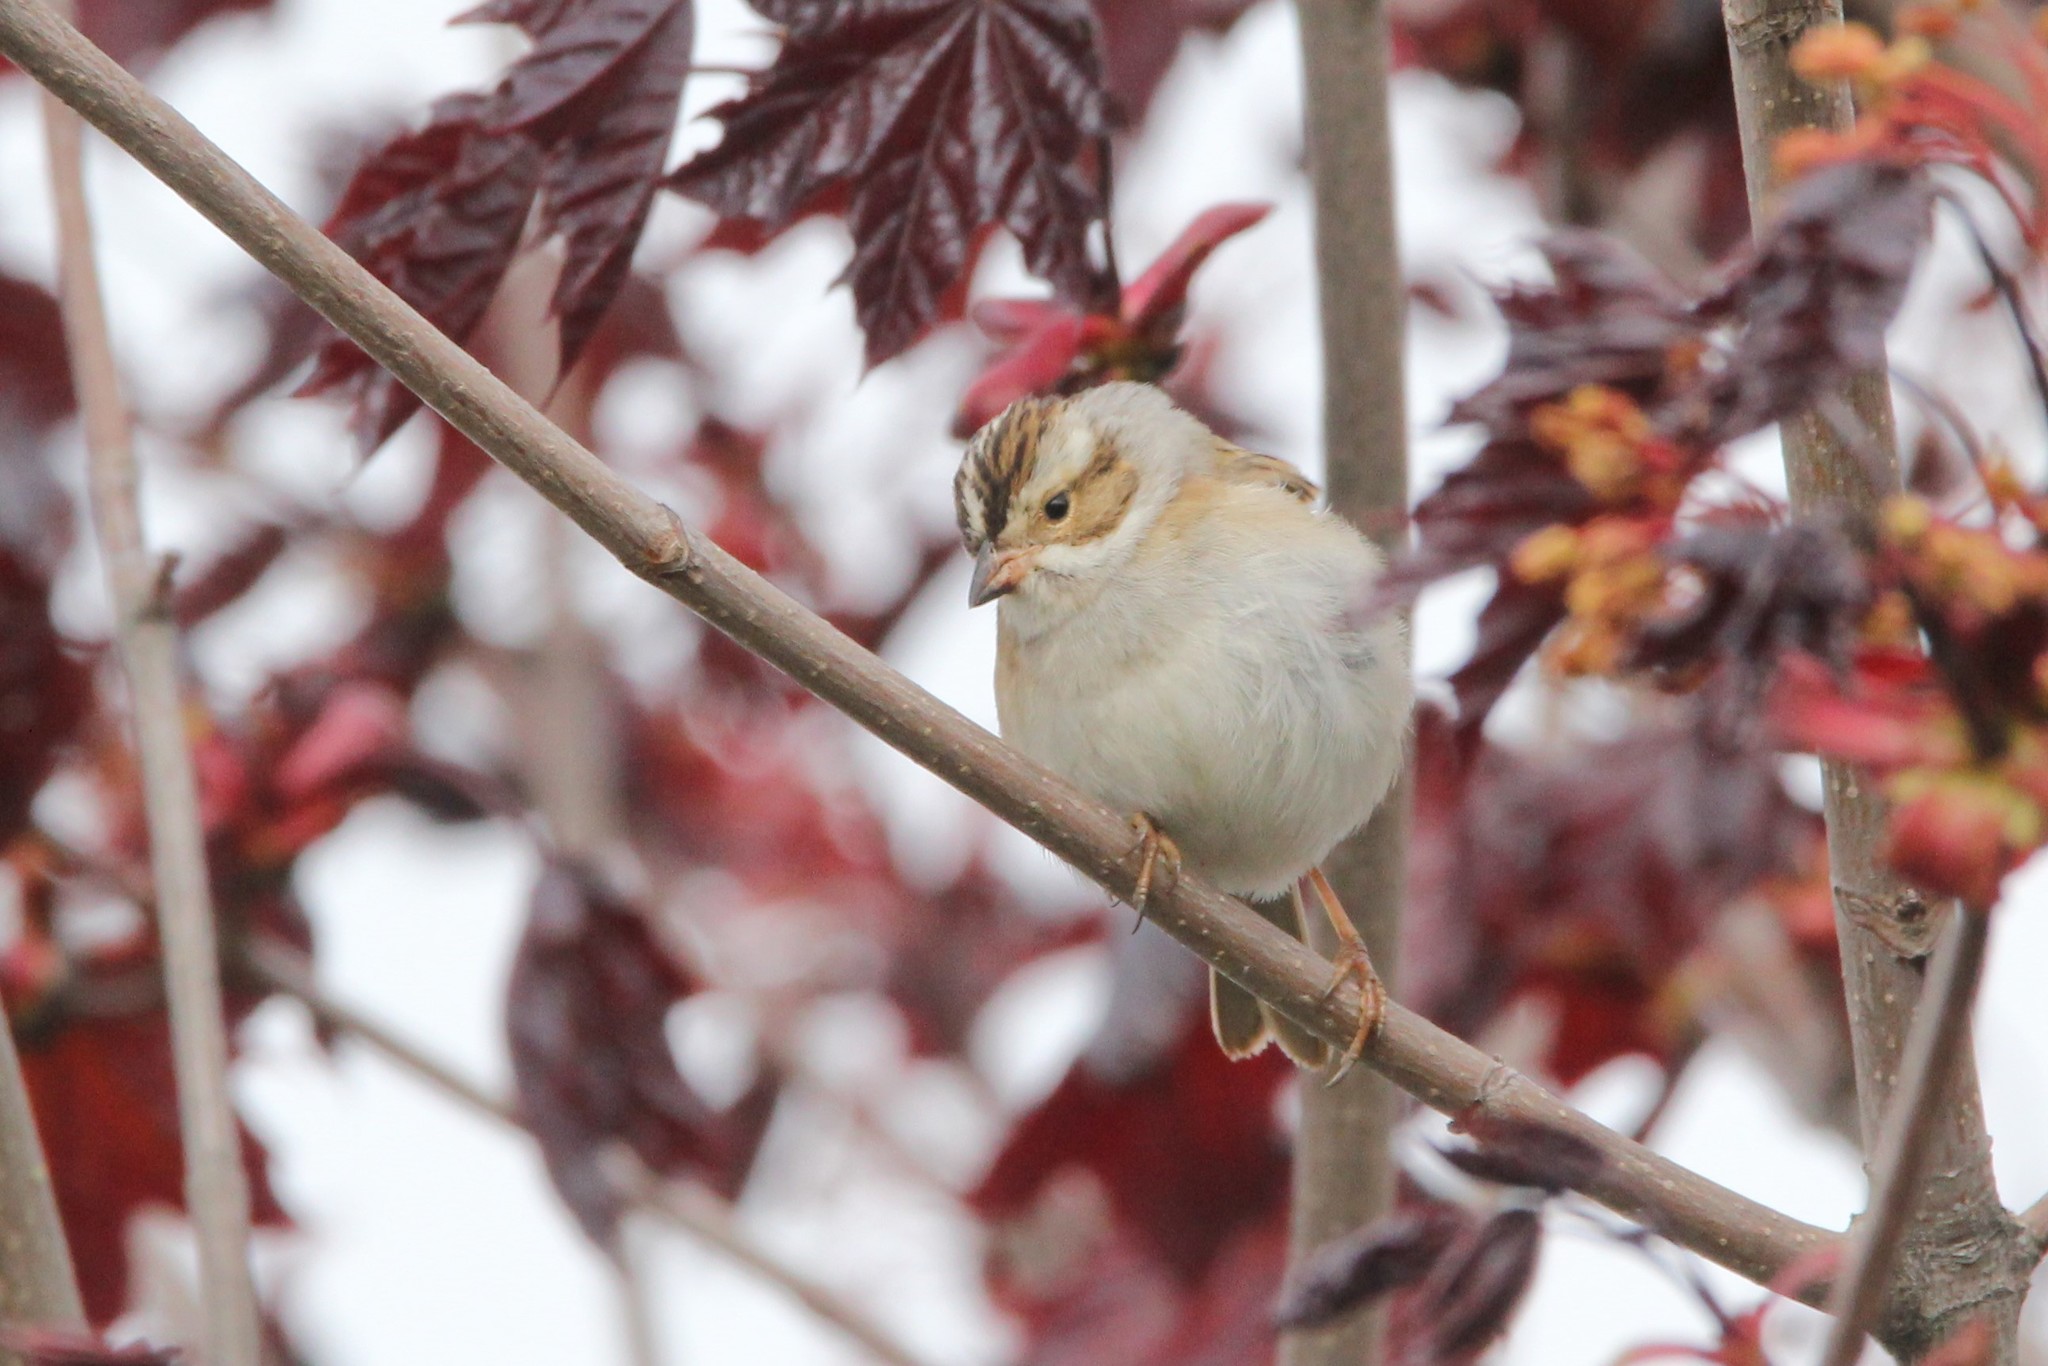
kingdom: Animalia
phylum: Chordata
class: Aves
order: Passeriformes
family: Passerellidae
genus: Spizella
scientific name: Spizella pallida
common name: Clay-colored sparrow
